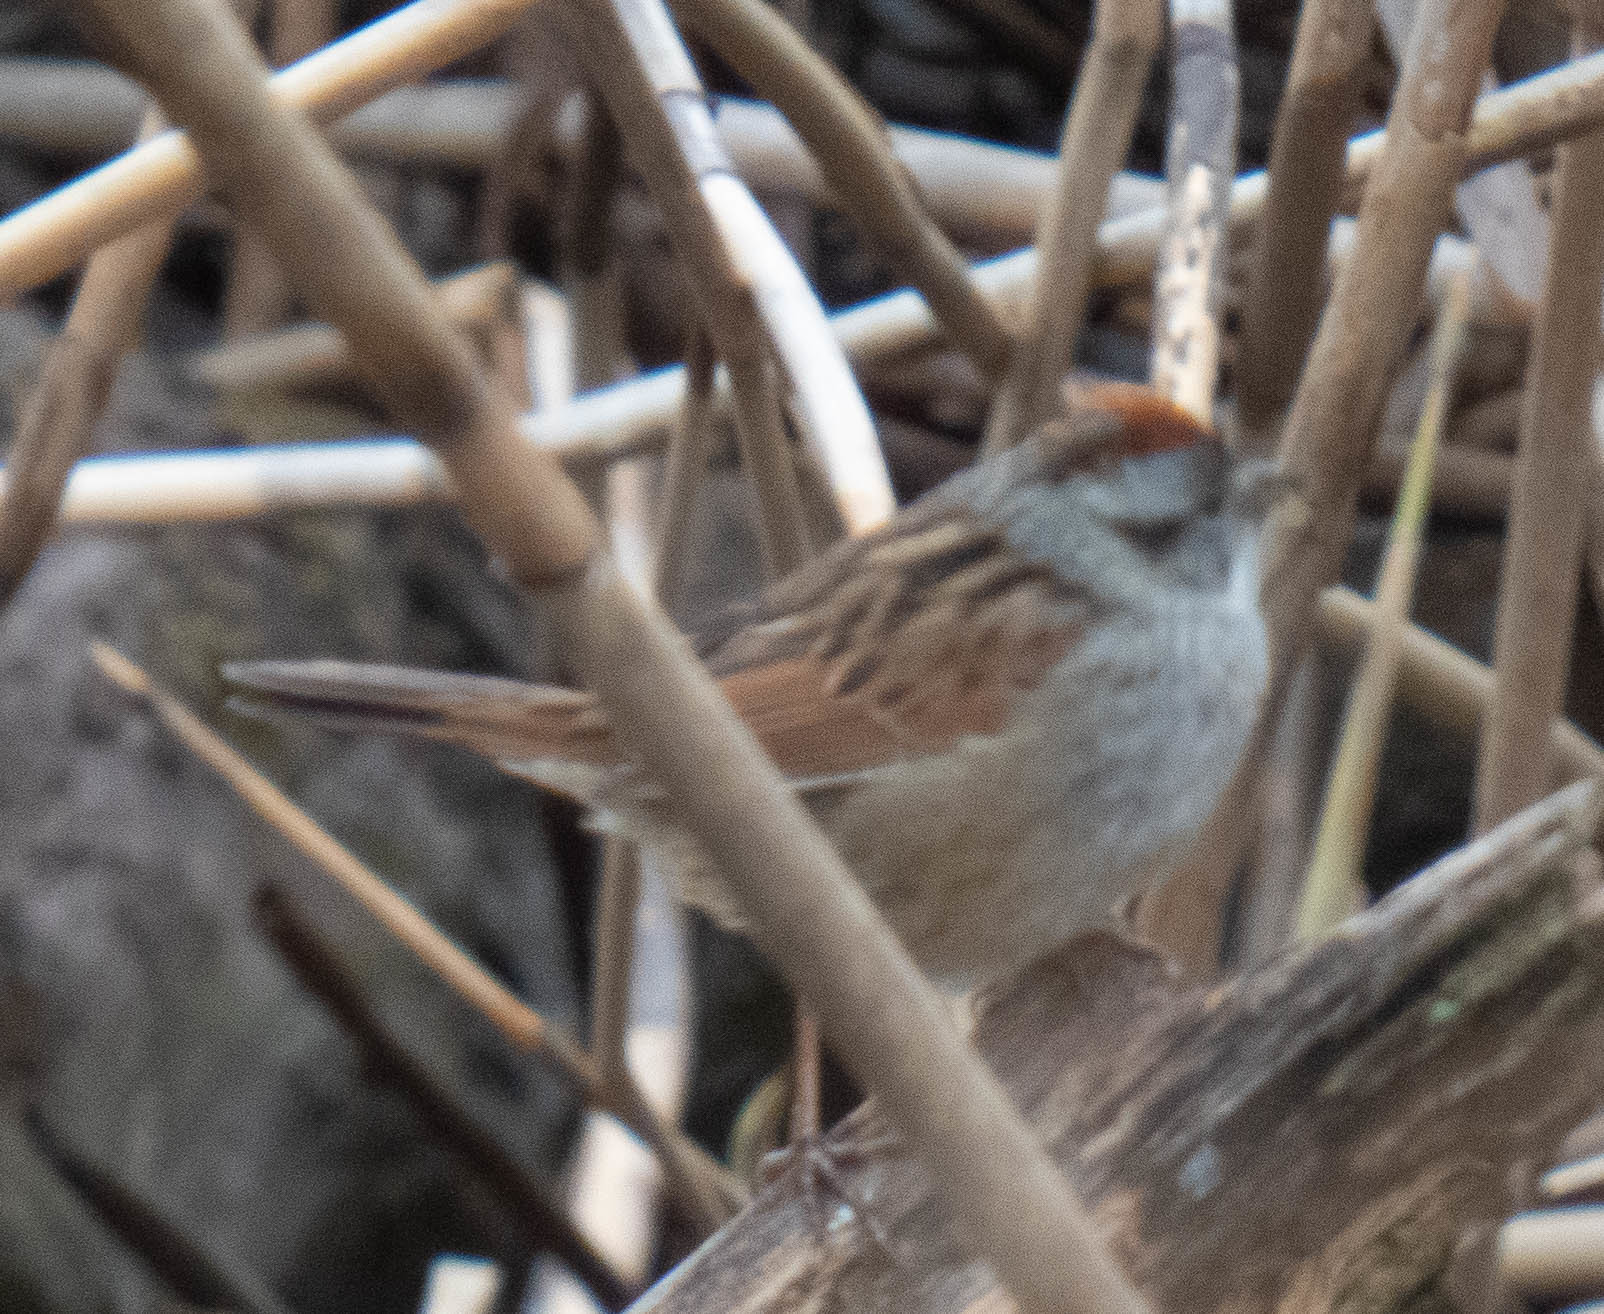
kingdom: Animalia
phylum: Chordata
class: Aves
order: Passeriformes
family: Passerellidae
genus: Melospiza
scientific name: Melospiza georgiana
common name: Swamp sparrow
